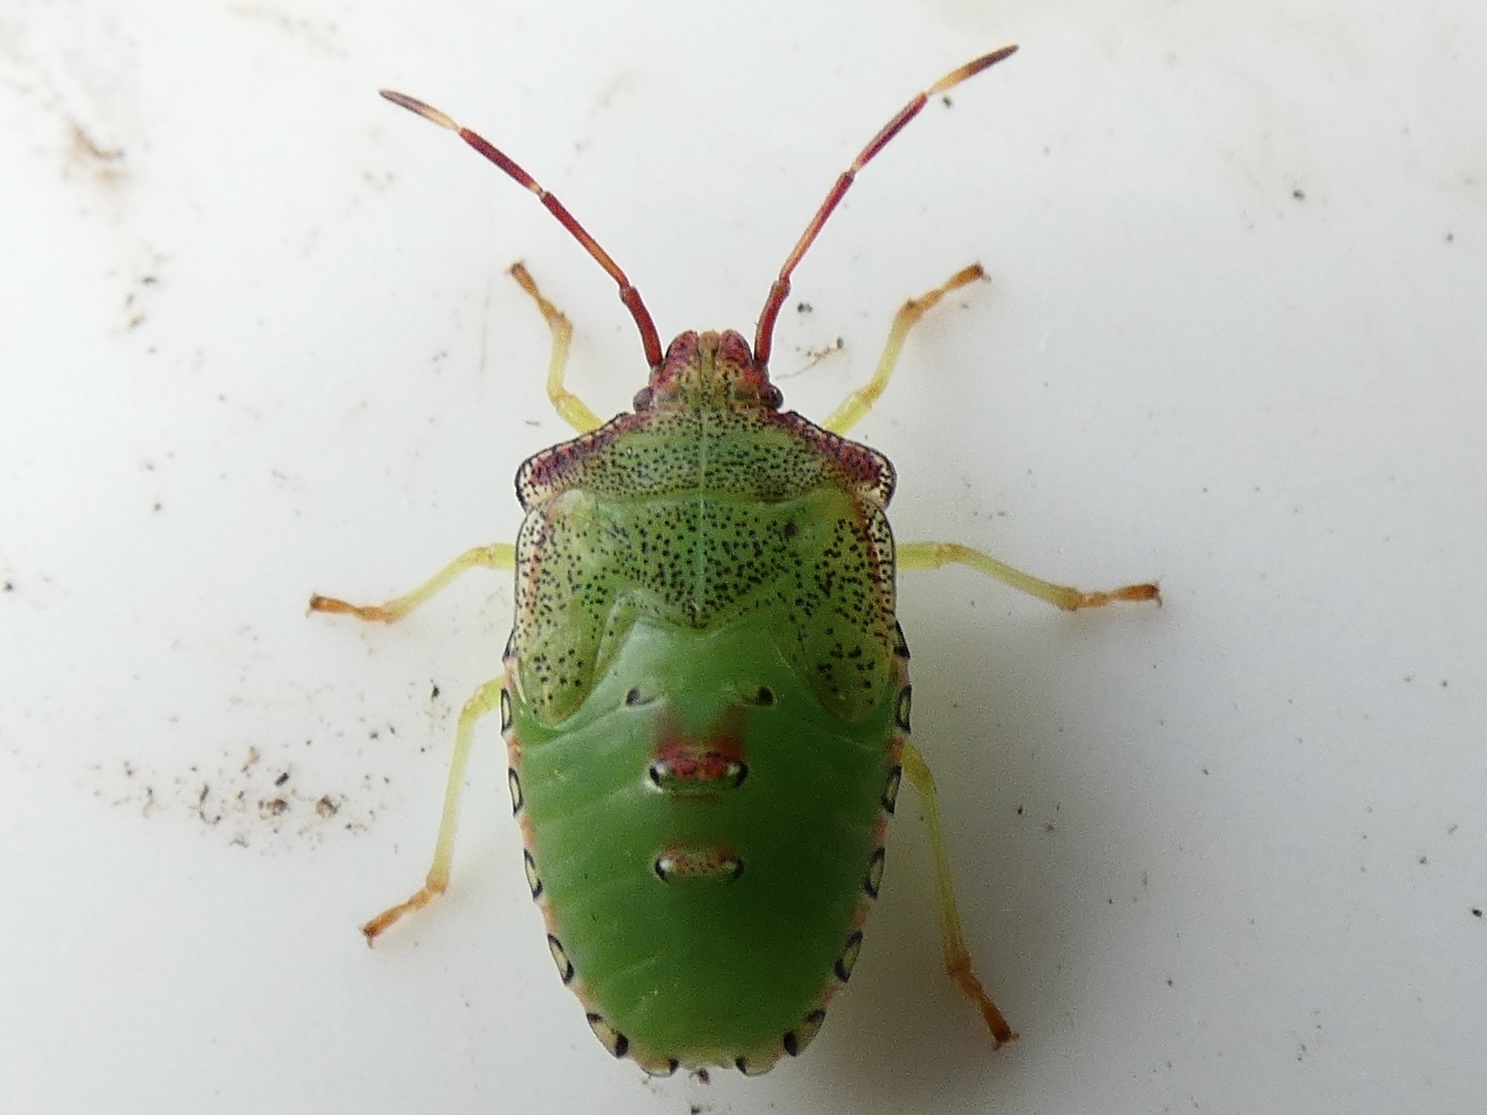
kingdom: Animalia
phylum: Arthropoda
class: Insecta
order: Hemiptera
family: Acanthosomatidae
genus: Acanthosoma
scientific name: Acanthosoma haemorrhoidale
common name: Hawthorn shieldbug
